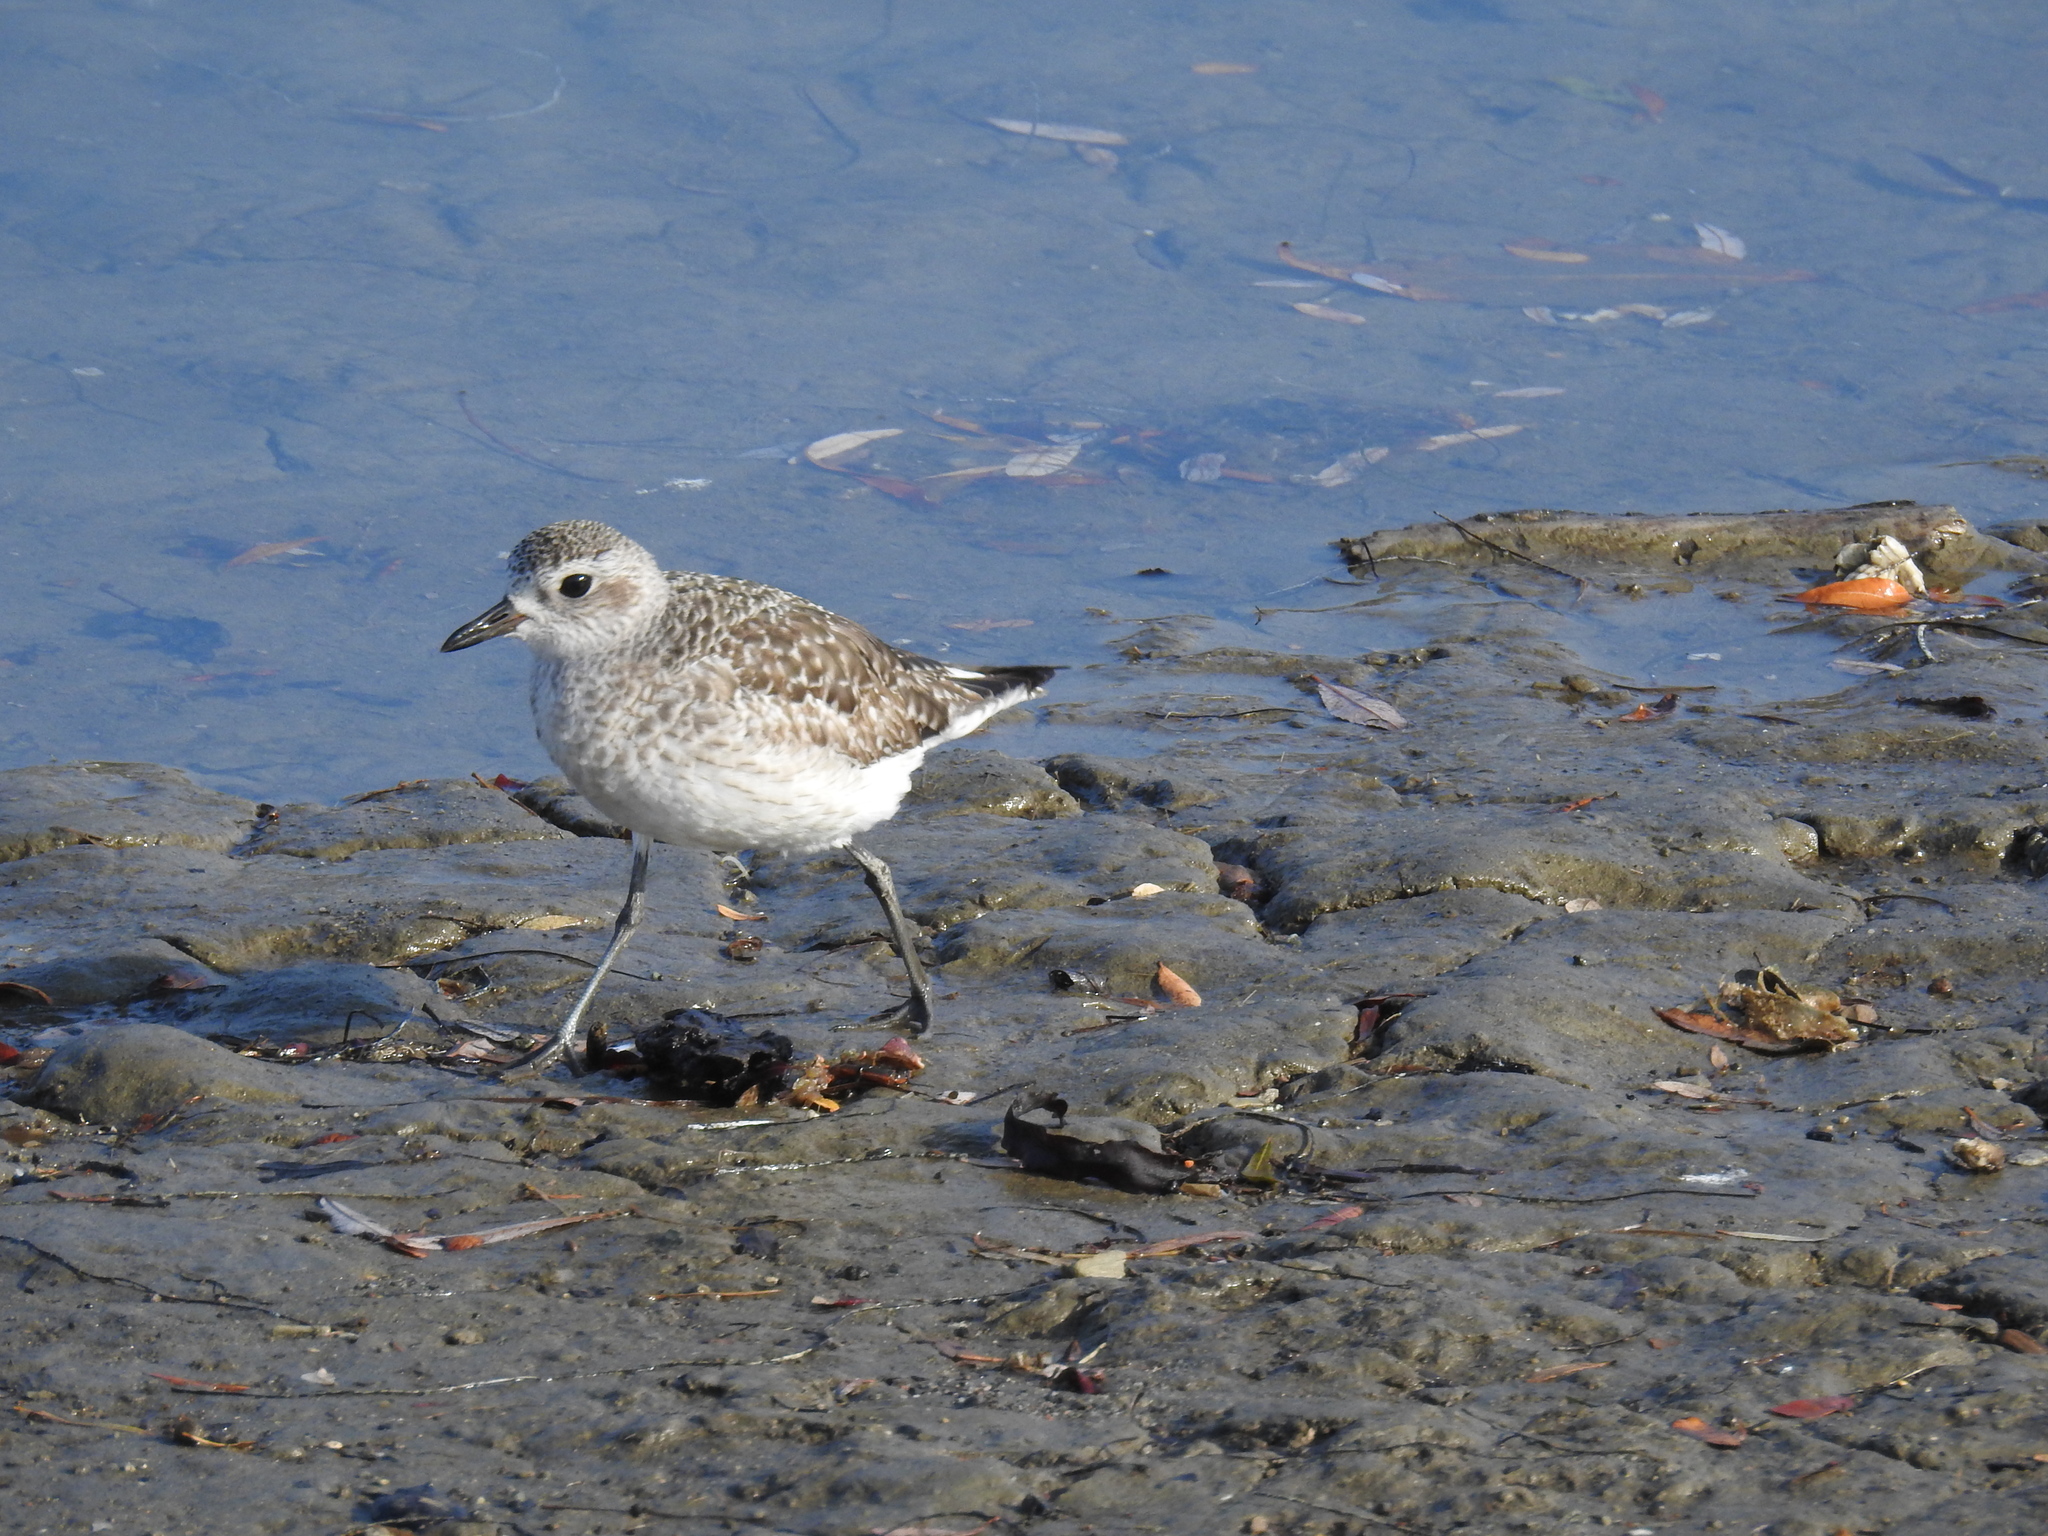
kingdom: Animalia
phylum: Chordata
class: Aves
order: Charadriiformes
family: Charadriidae
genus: Pluvialis
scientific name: Pluvialis squatarola
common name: Grey plover
